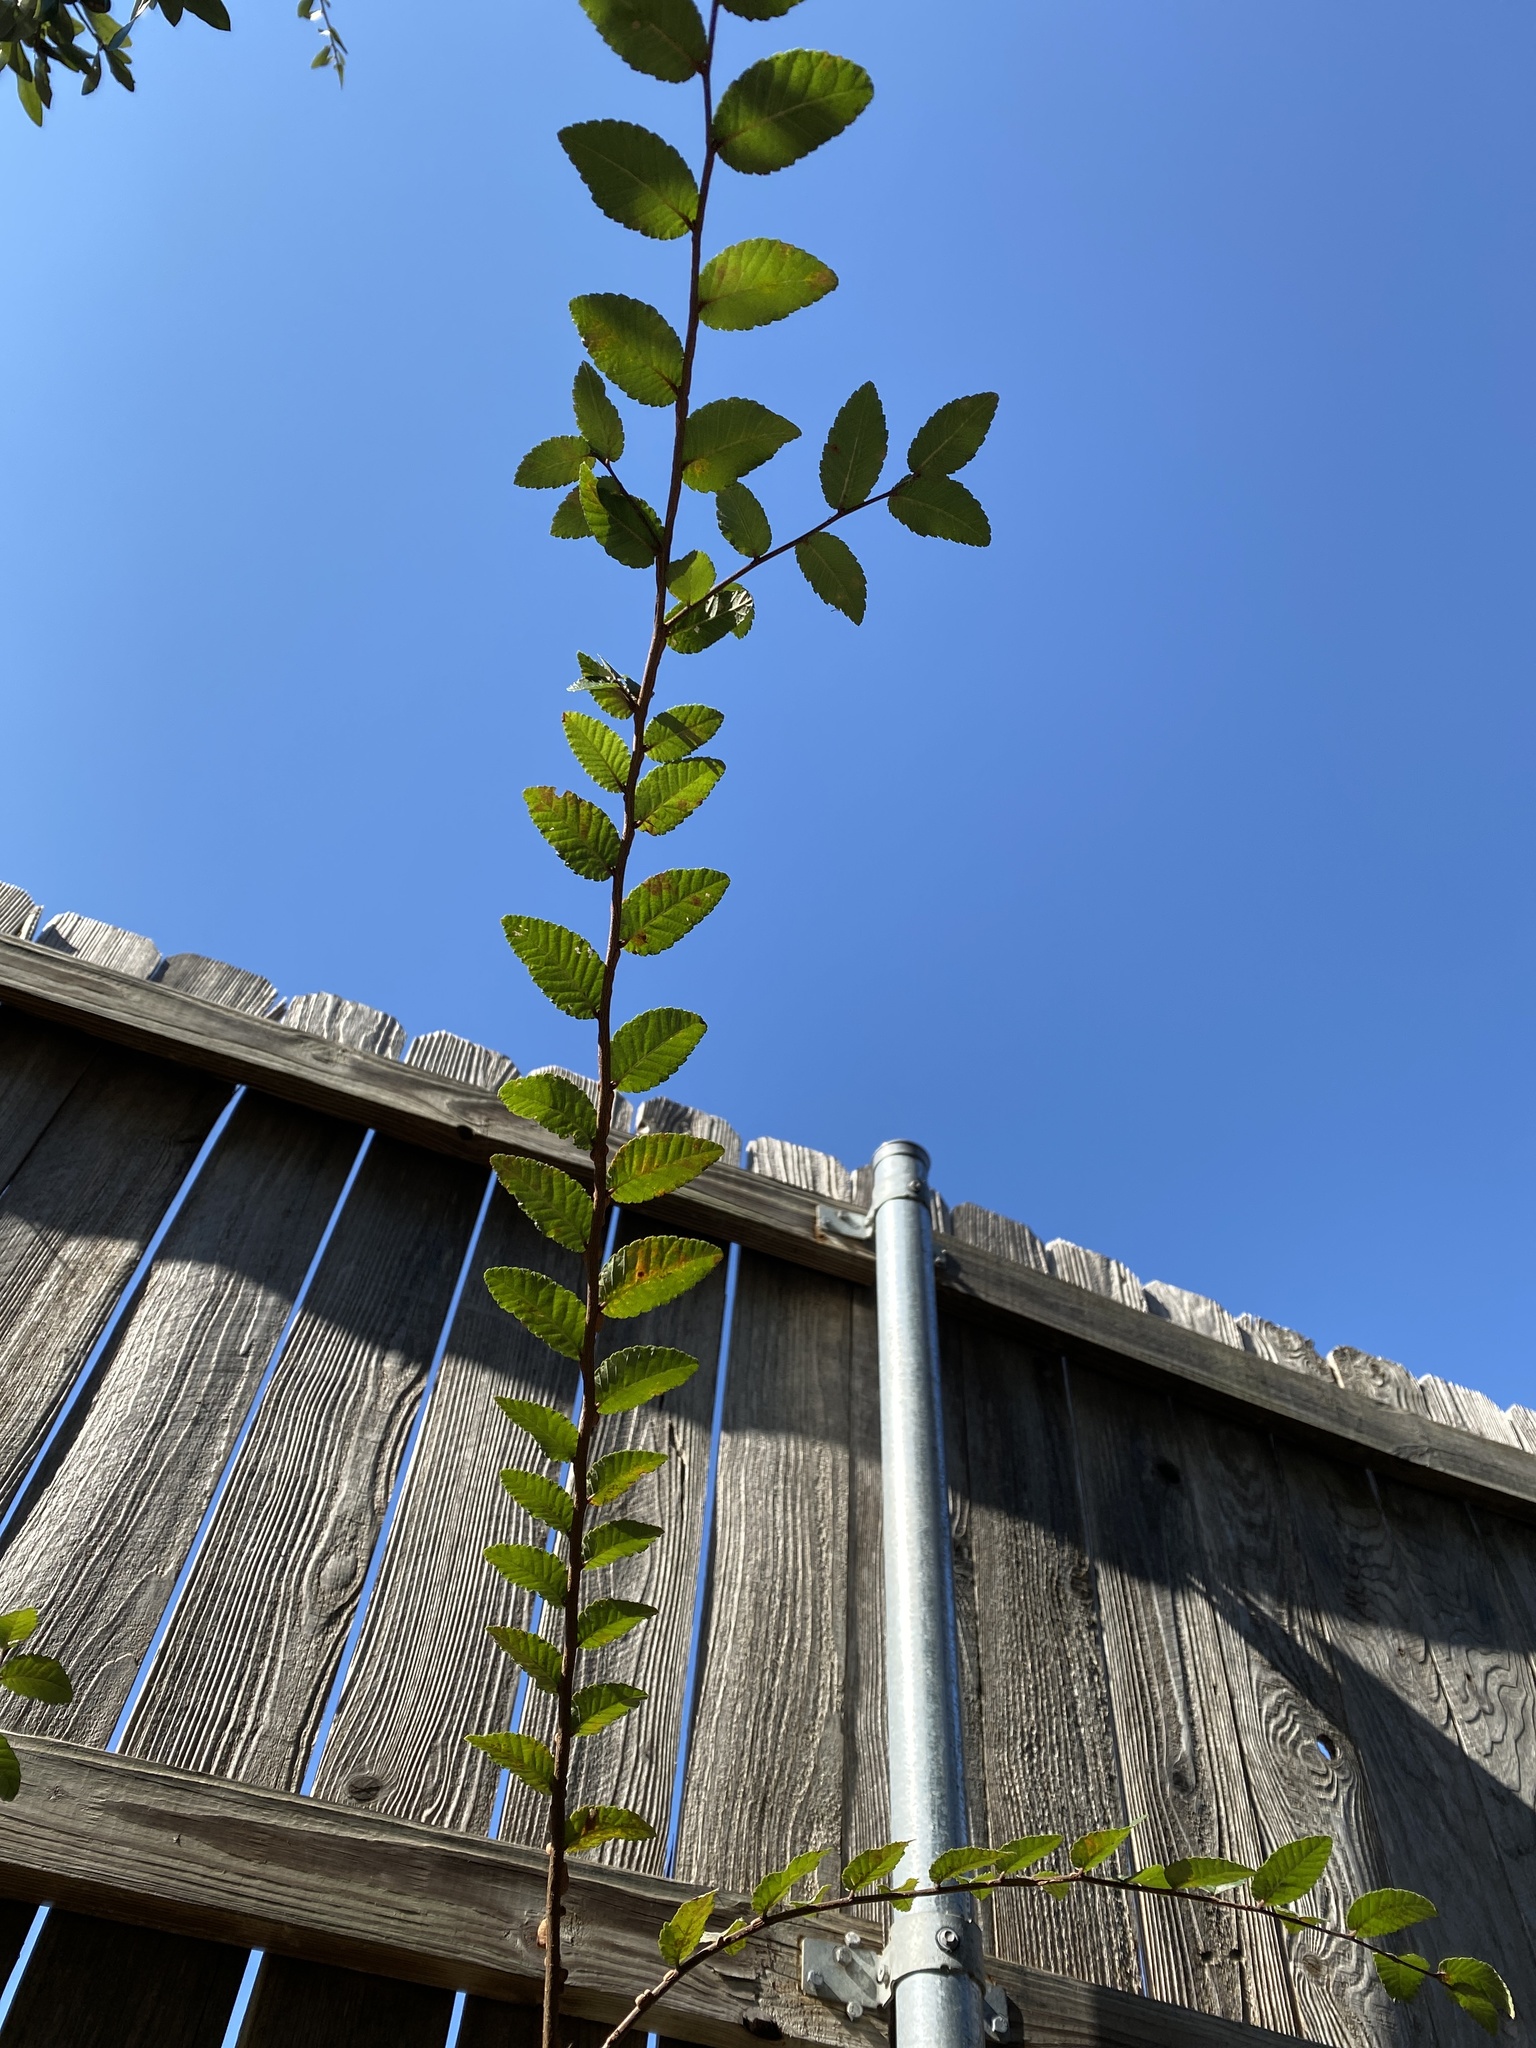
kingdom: Plantae
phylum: Tracheophyta
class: Magnoliopsida
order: Rosales
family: Ulmaceae
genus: Ulmus
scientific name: Ulmus crassifolia
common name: Basket elm
